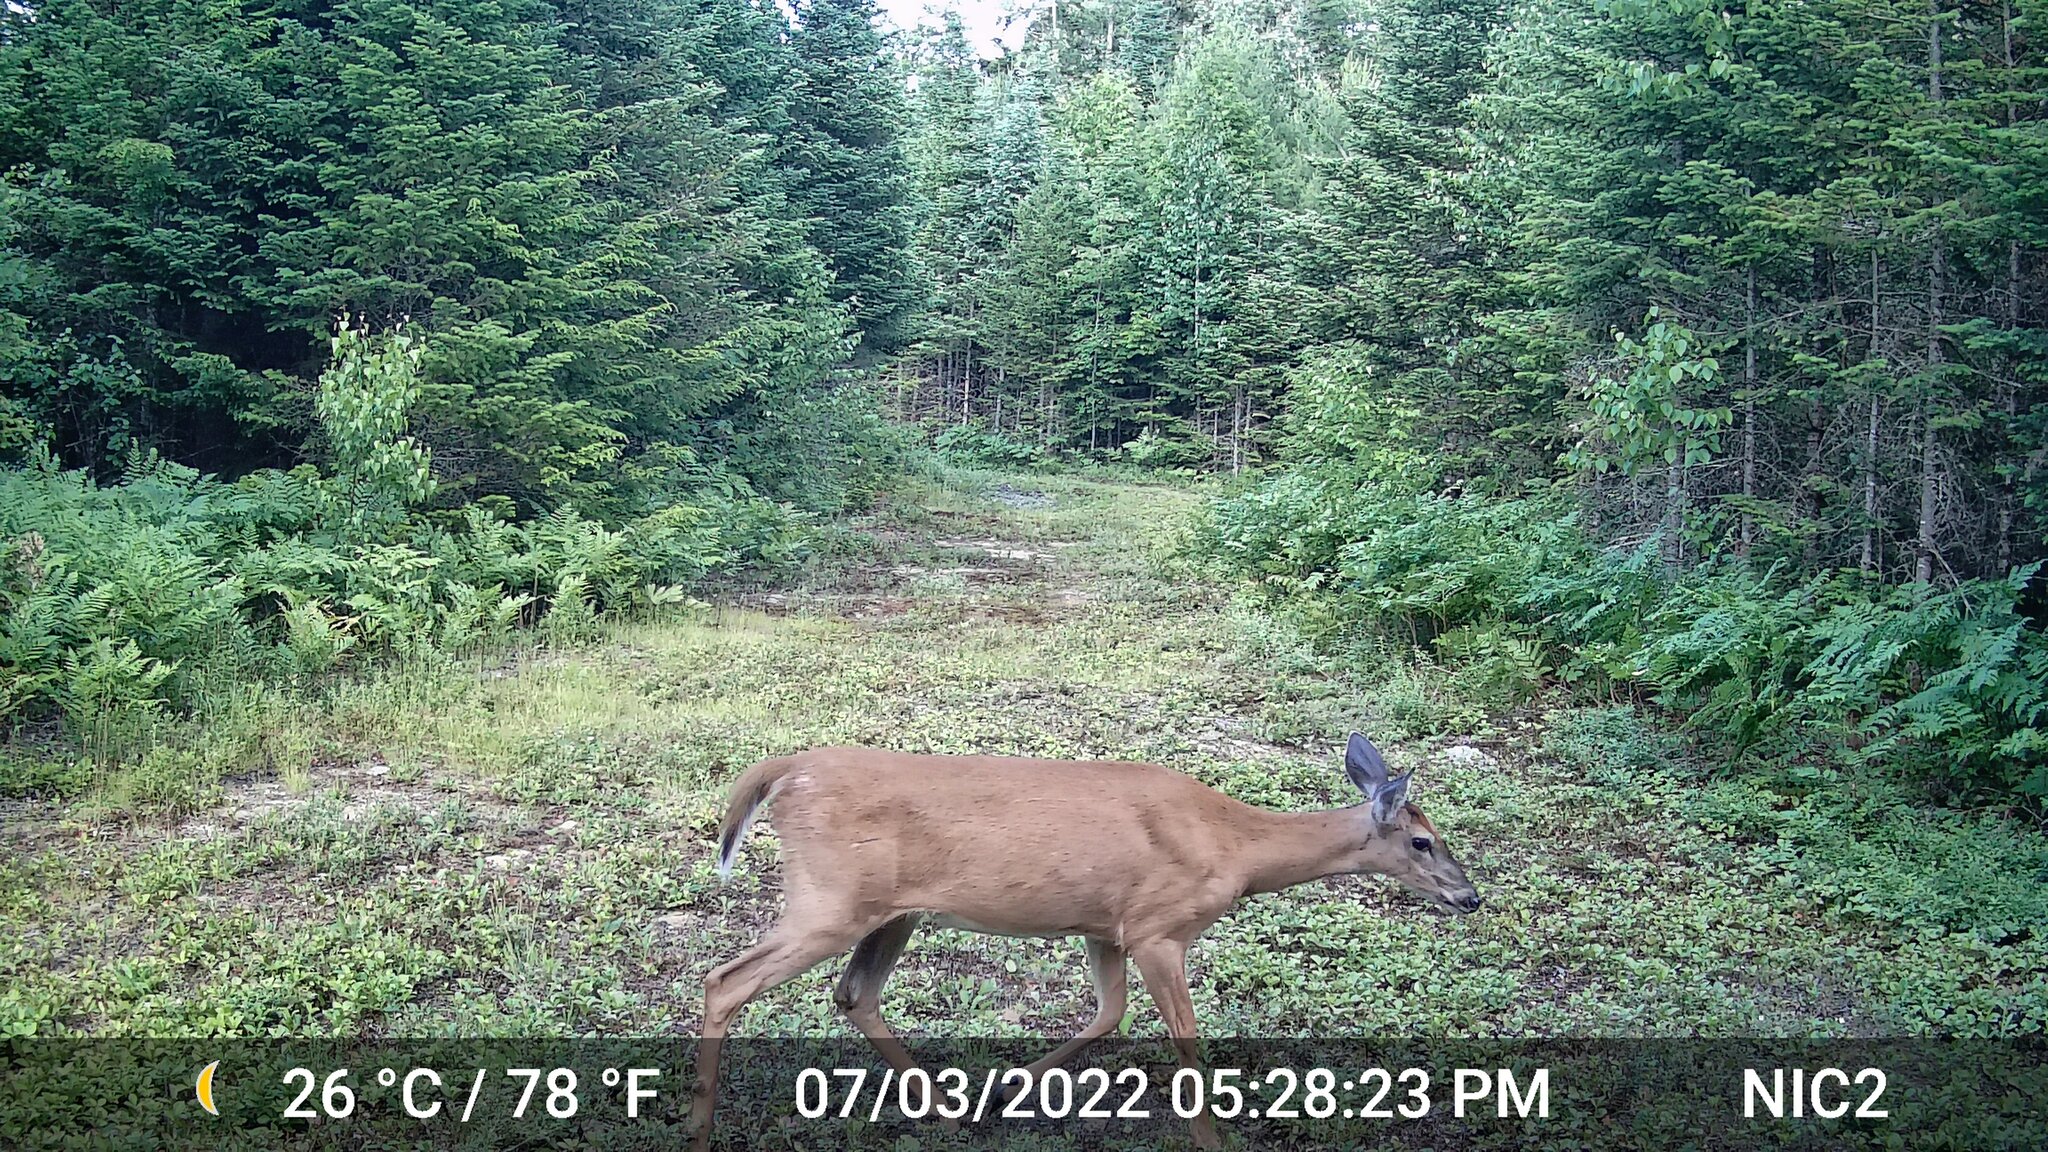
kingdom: Animalia
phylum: Chordata
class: Mammalia
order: Artiodactyla
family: Cervidae
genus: Odocoileus
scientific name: Odocoileus virginianus
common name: White-tailed deer
